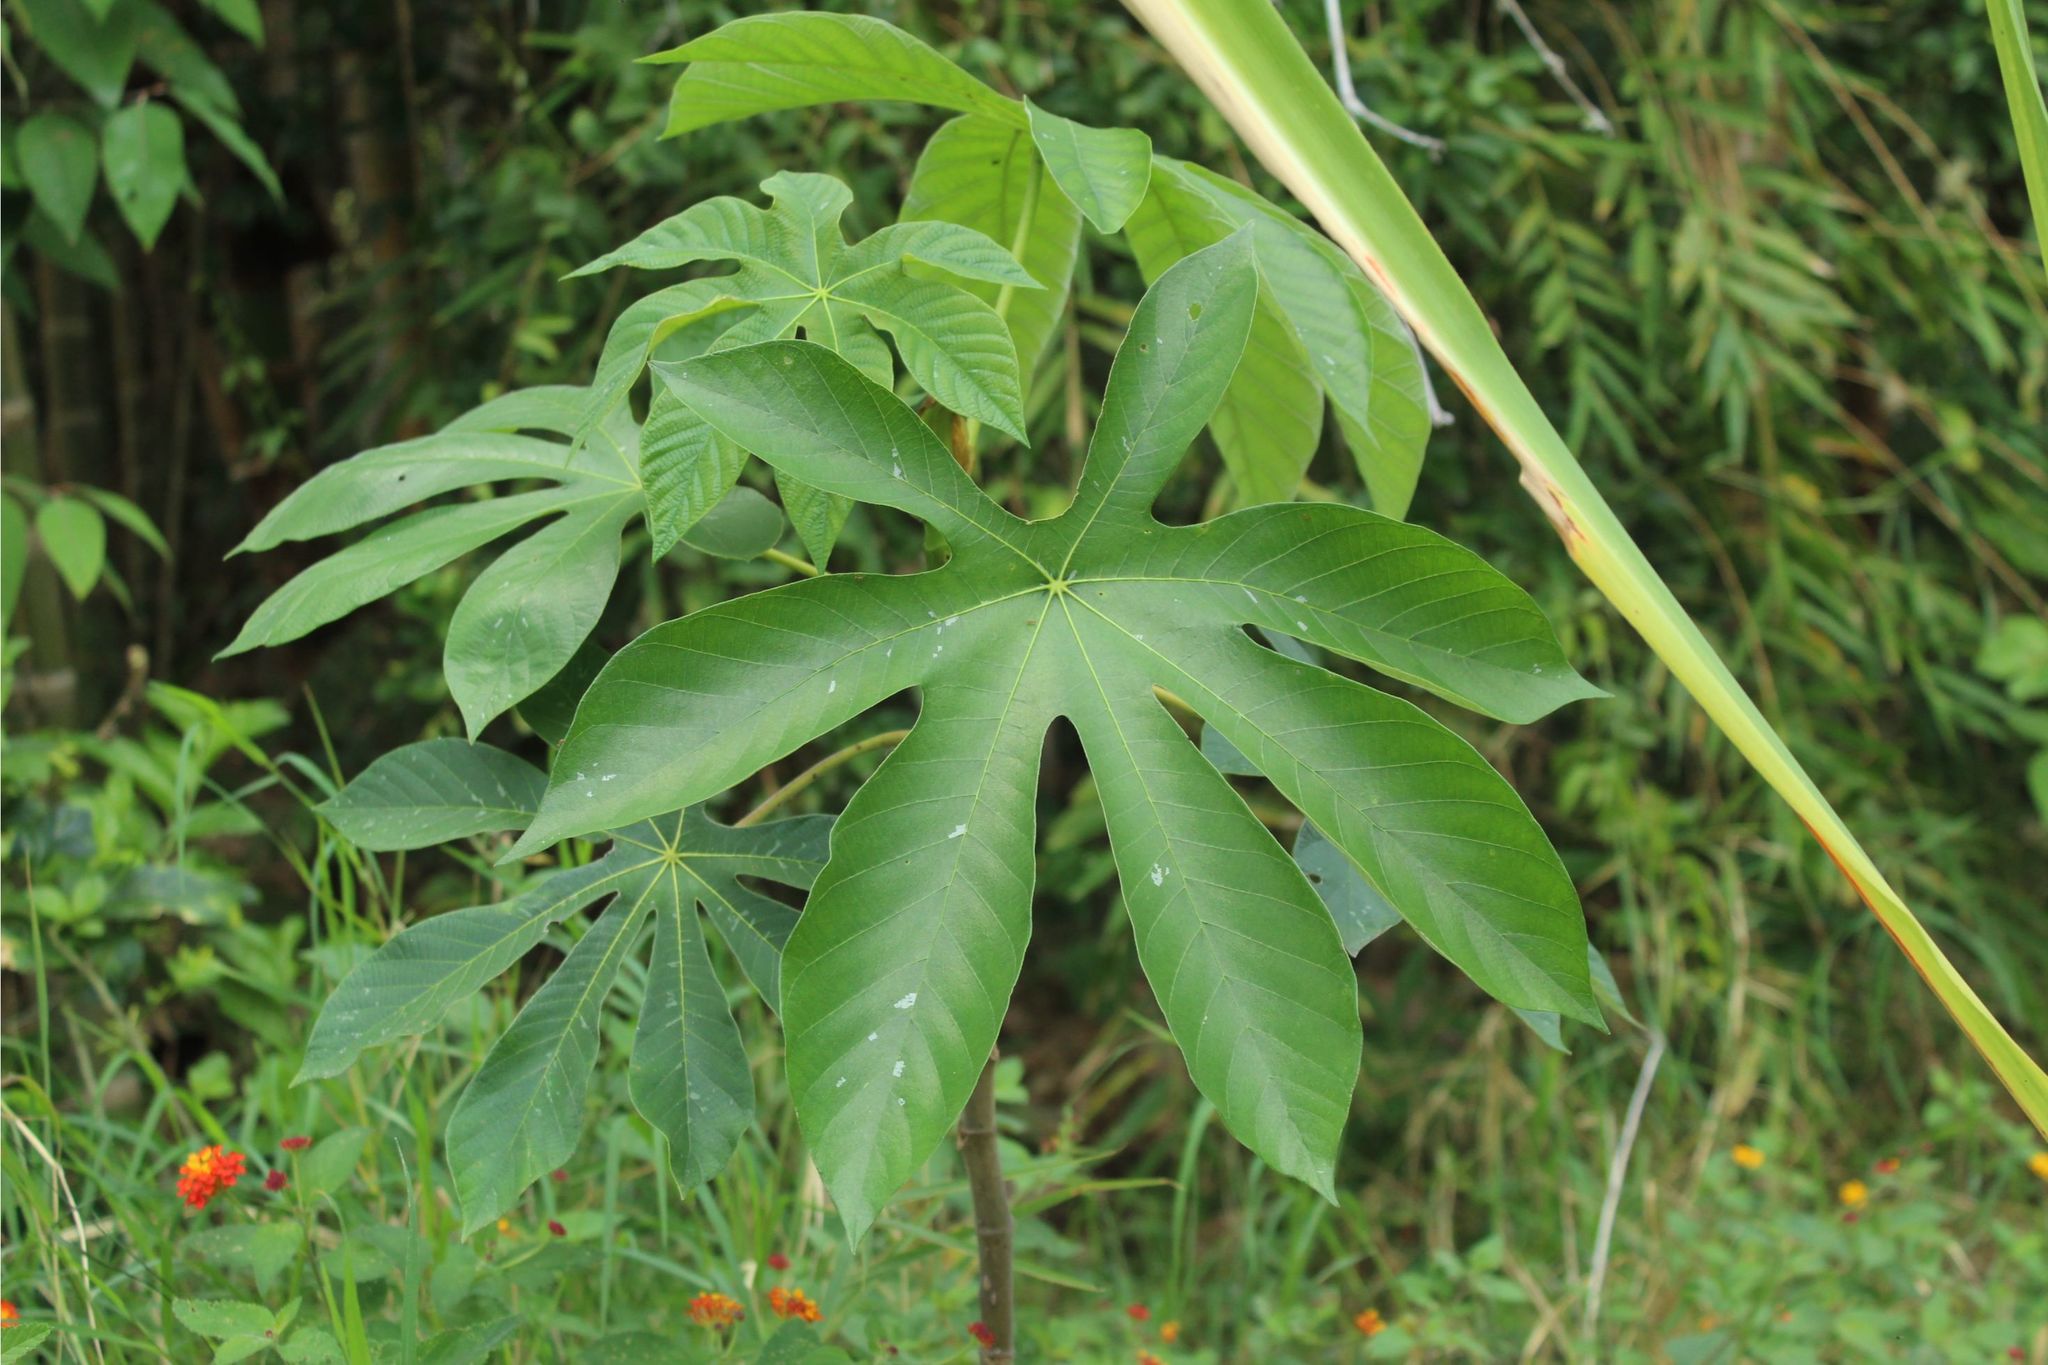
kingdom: Plantae
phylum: Tracheophyta
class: Magnoliopsida
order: Rosales
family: Urticaceae
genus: Cecropia
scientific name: Cecropia
